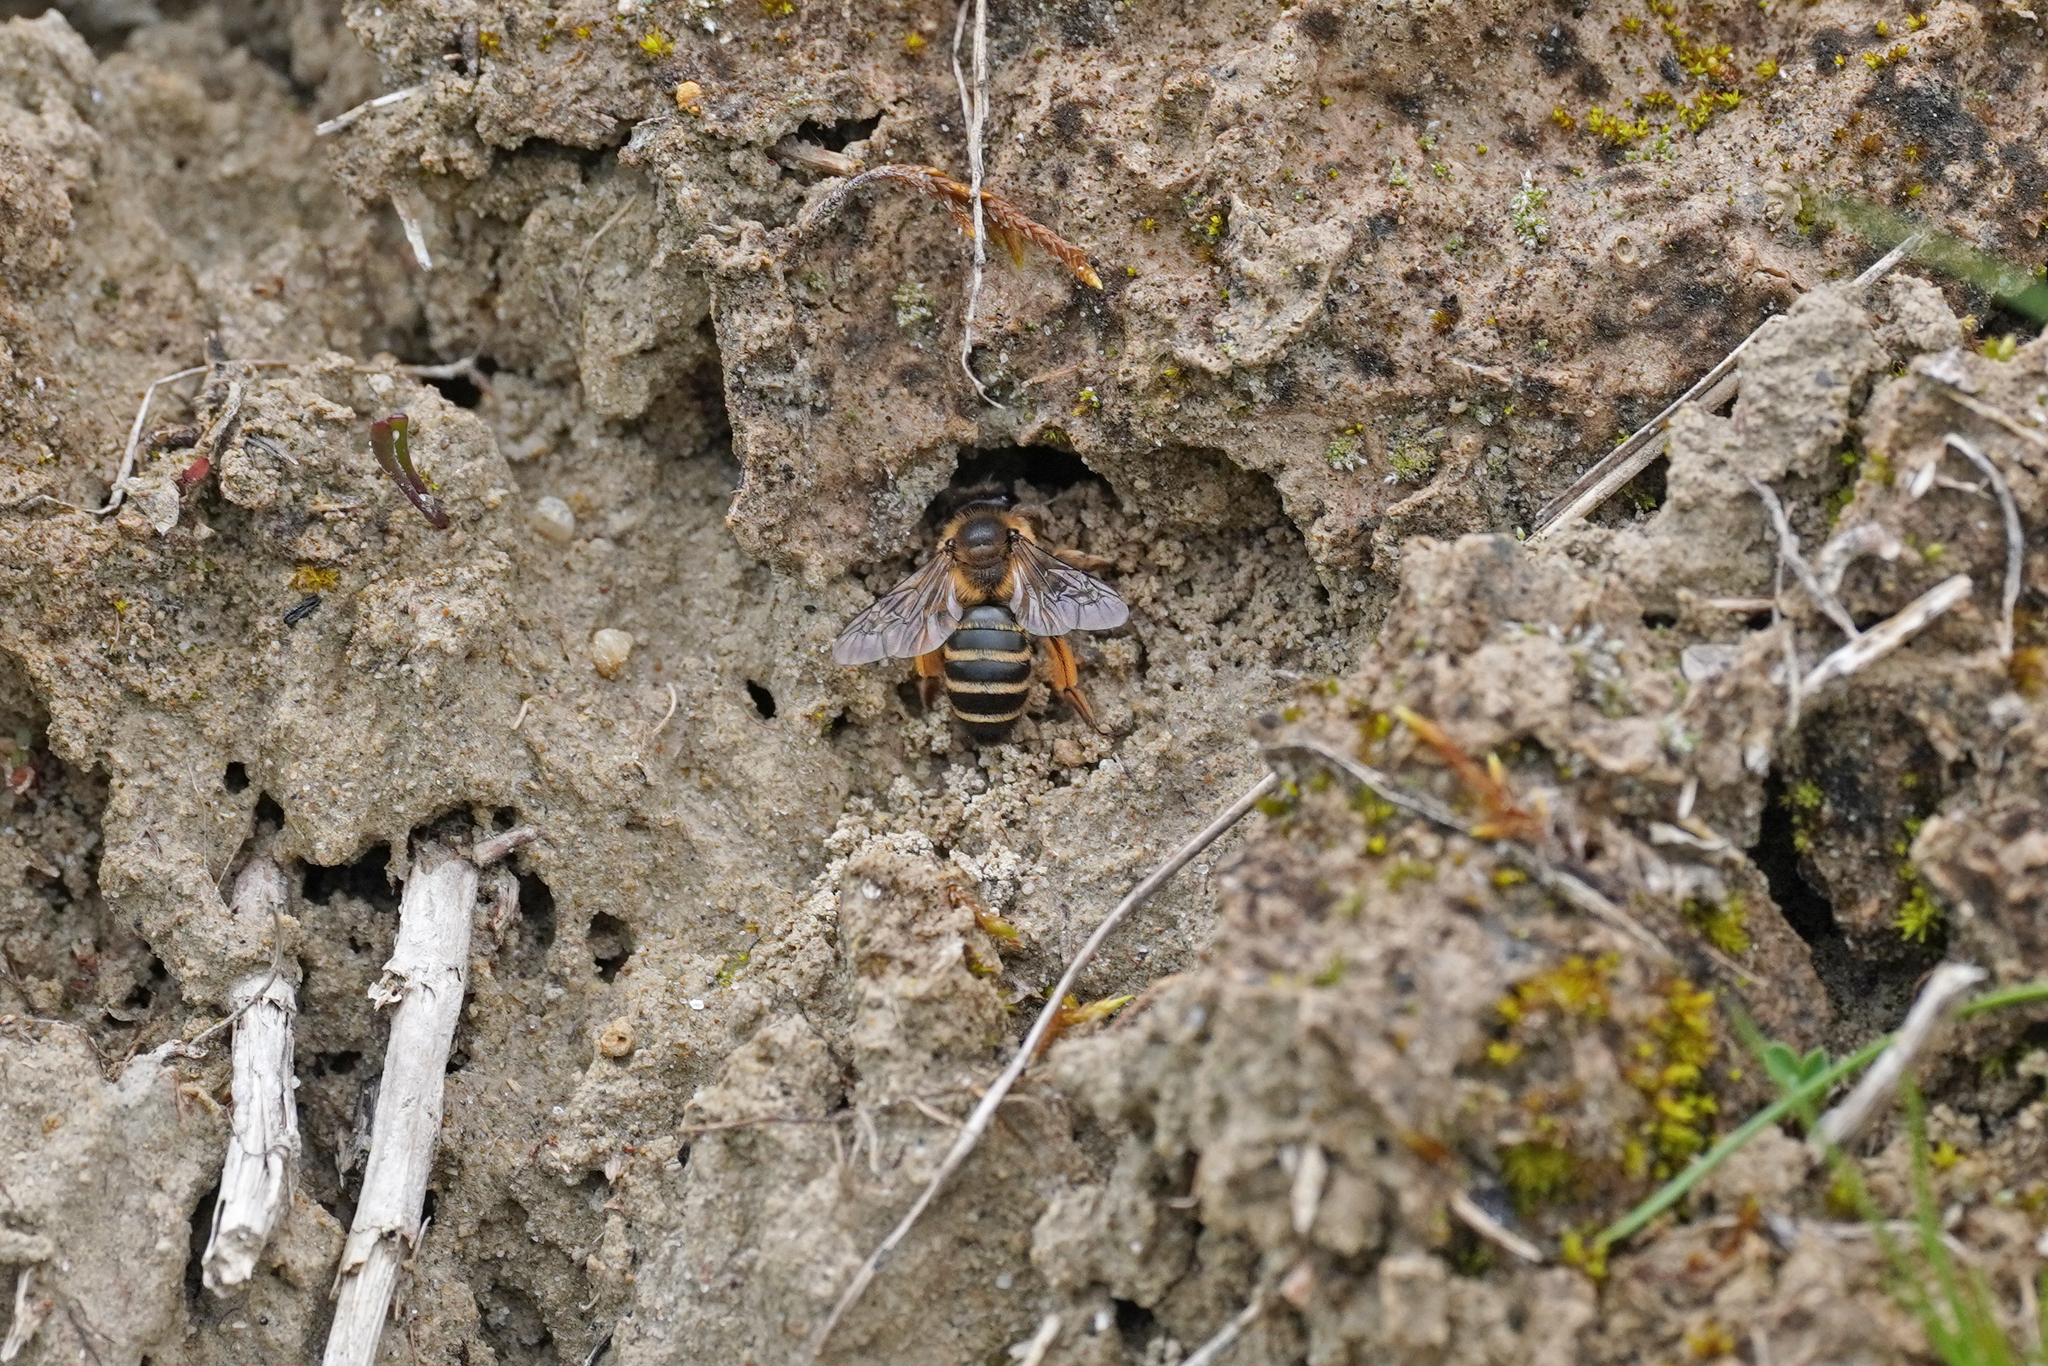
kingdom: Animalia
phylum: Arthropoda
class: Insecta
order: Hymenoptera
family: Andrenidae
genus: Andrena
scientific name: Andrena flavipes
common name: Yellow-legged mining bee
